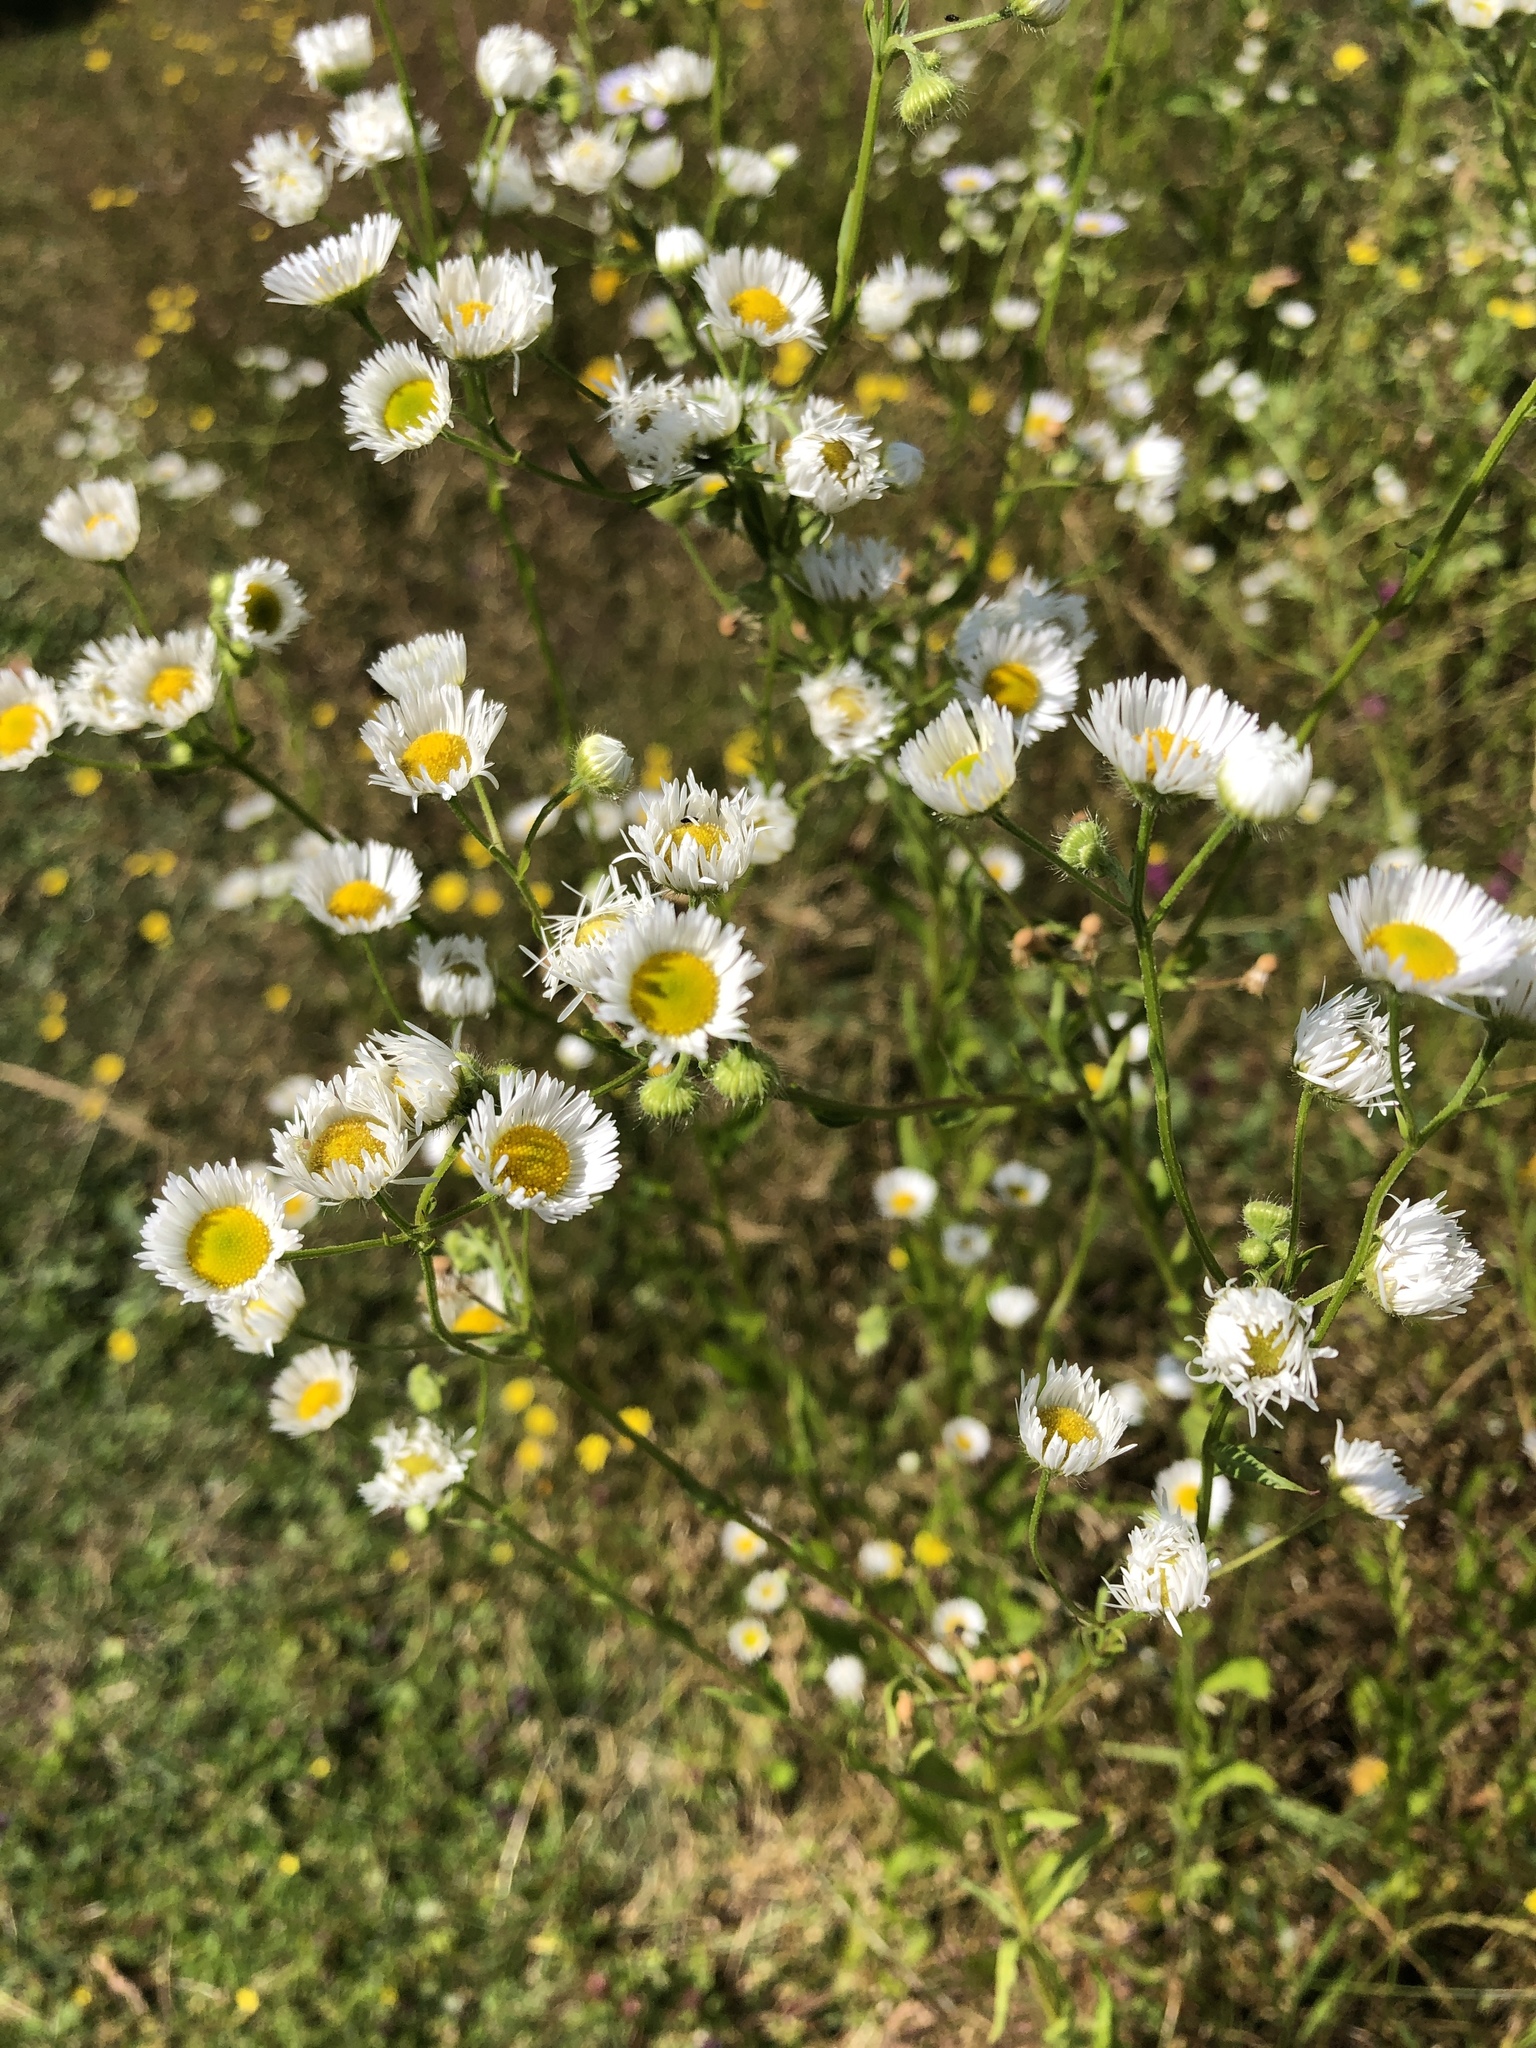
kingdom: Plantae
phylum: Tracheophyta
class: Magnoliopsida
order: Asterales
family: Asteraceae
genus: Erigeron
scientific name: Erigeron annuus
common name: Tall fleabane
